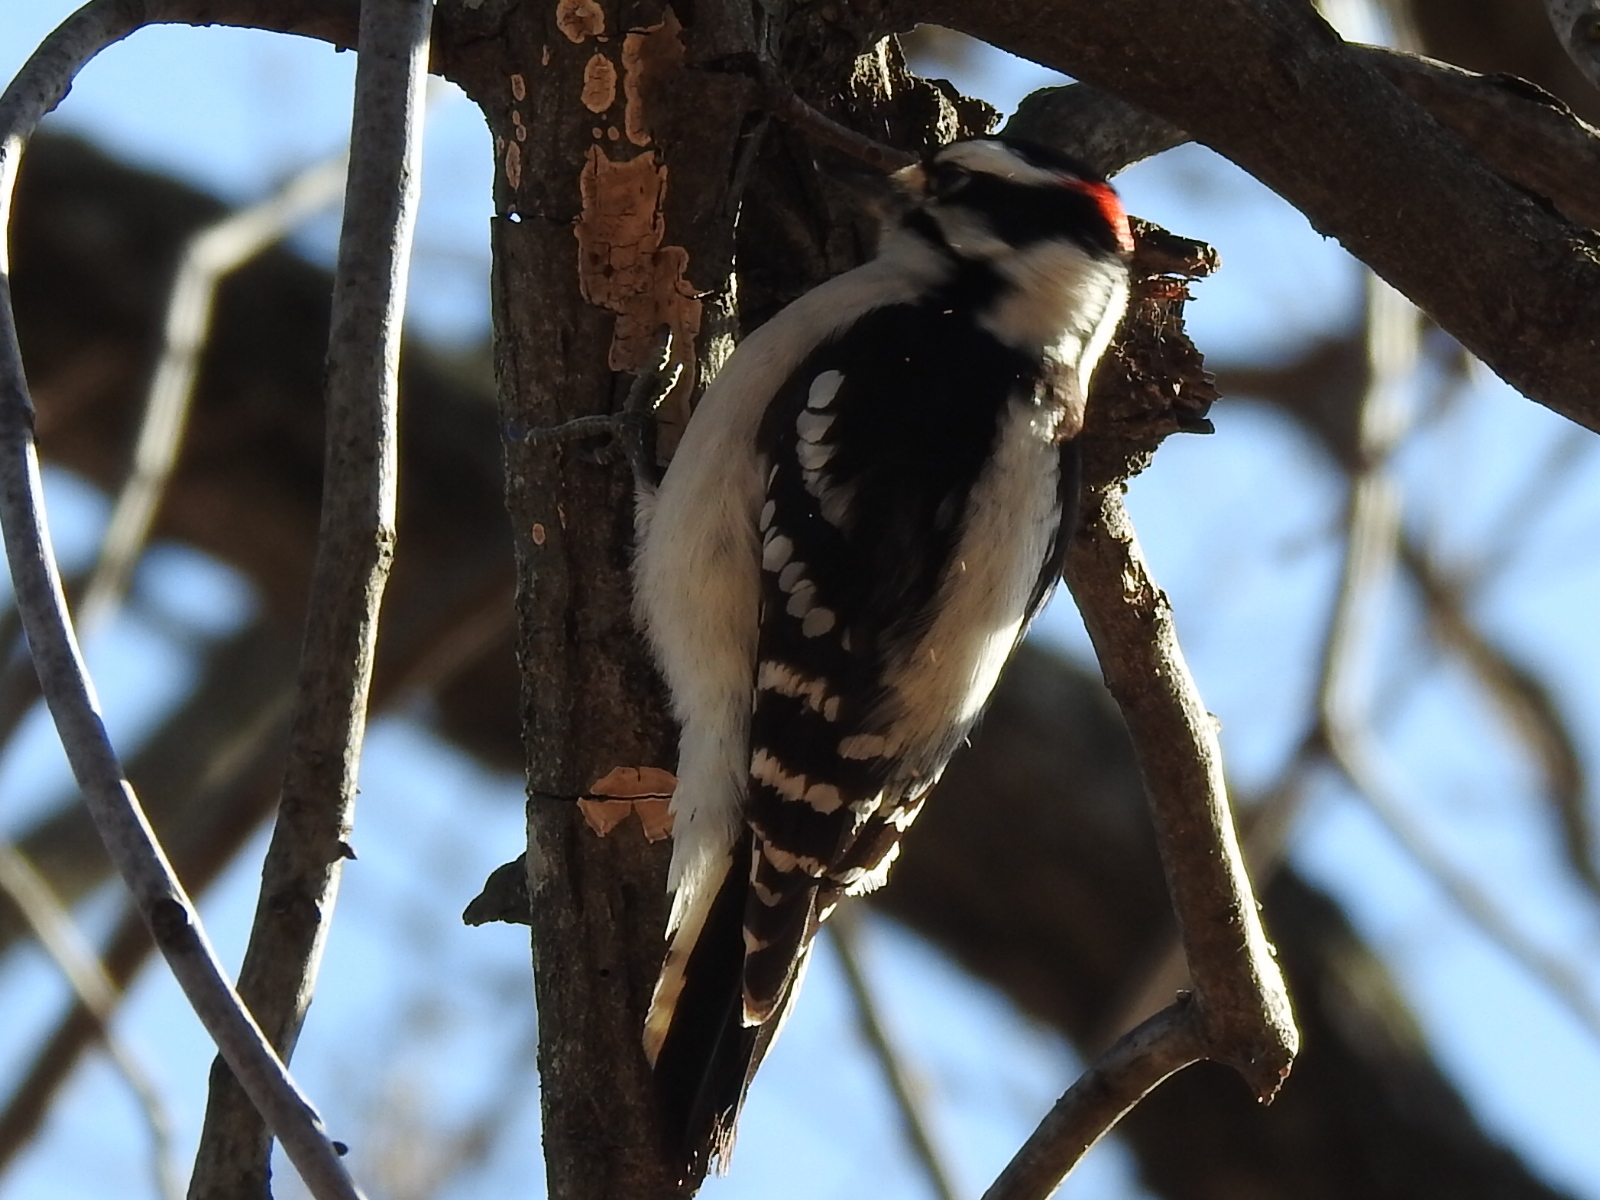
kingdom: Animalia
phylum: Chordata
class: Aves
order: Piciformes
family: Picidae
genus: Dryobates
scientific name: Dryobates pubescens
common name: Downy woodpecker
